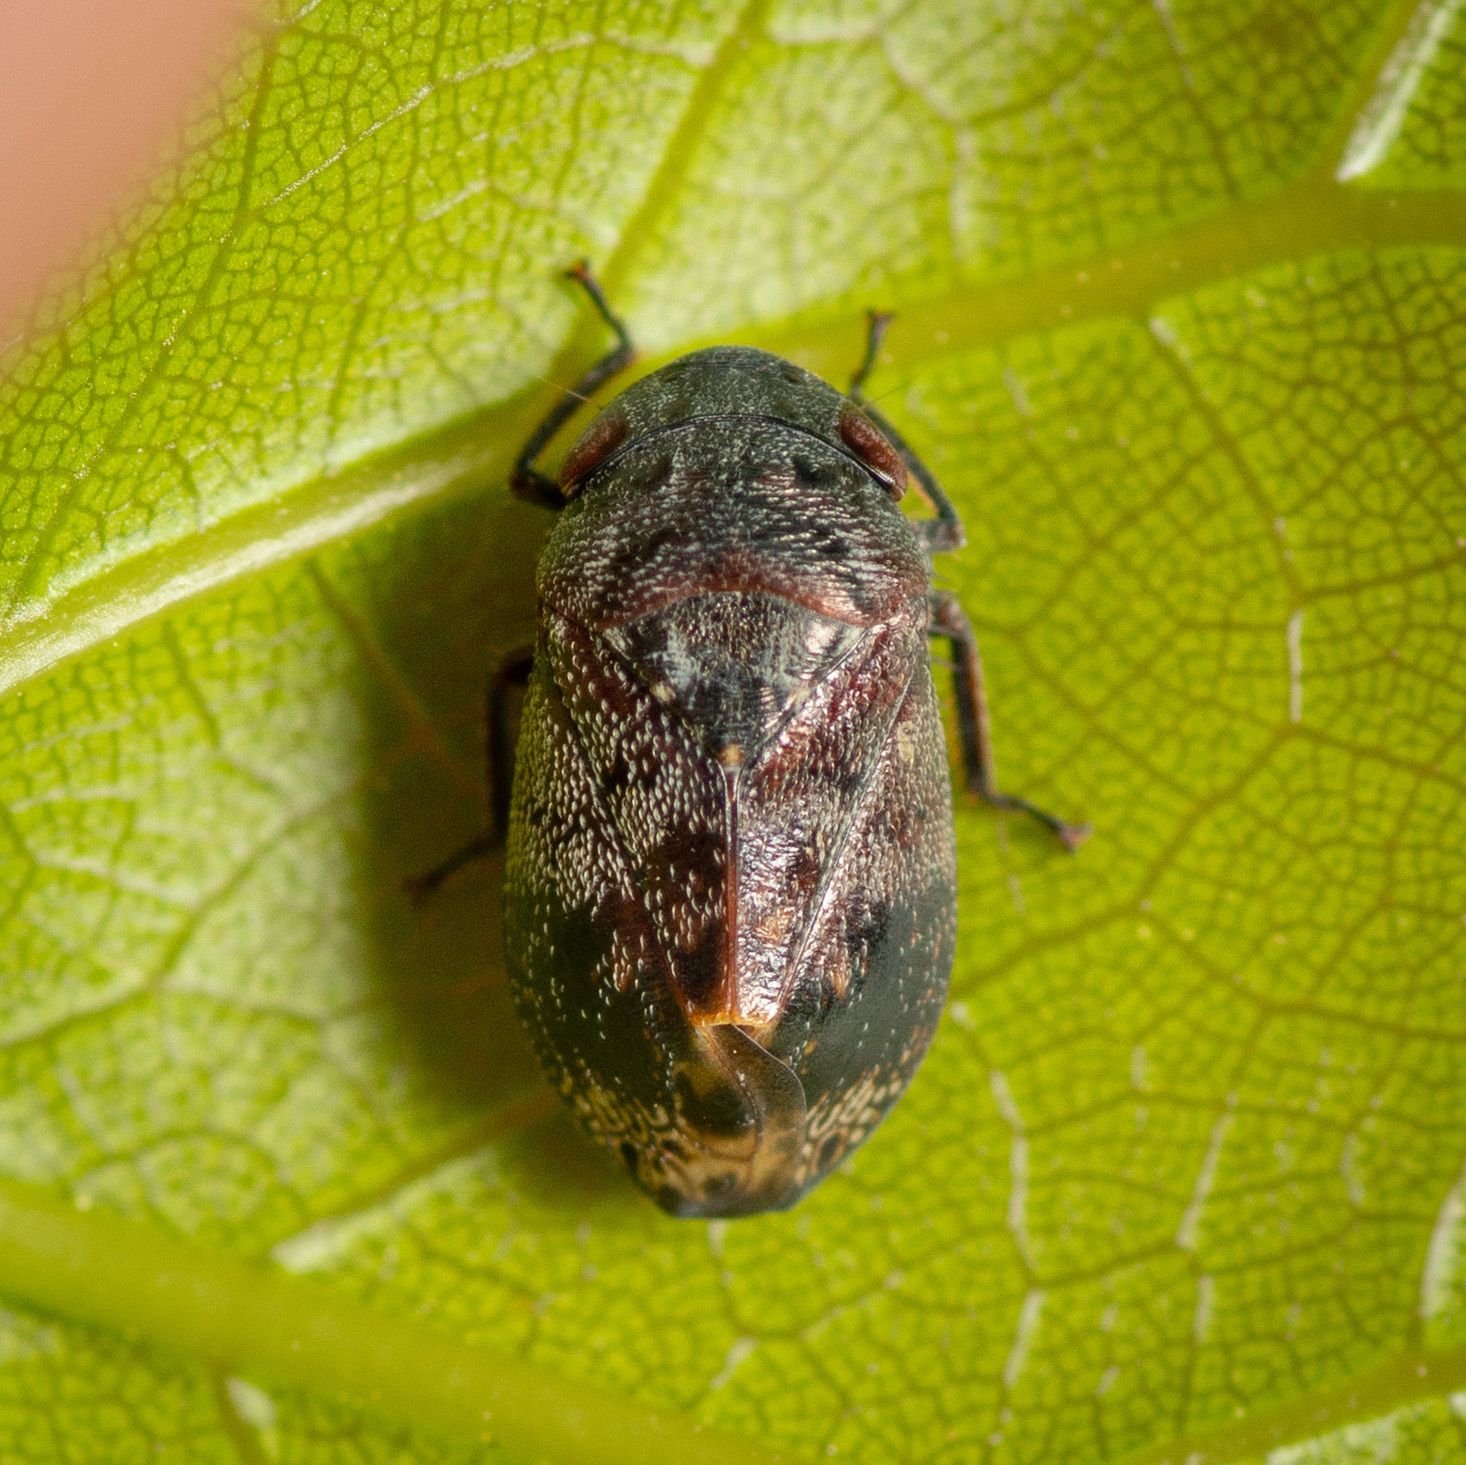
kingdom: Animalia
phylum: Arthropoda
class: Insecta
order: Hemiptera
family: Cicadellidae
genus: Penthimia
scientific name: Penthimia americana
